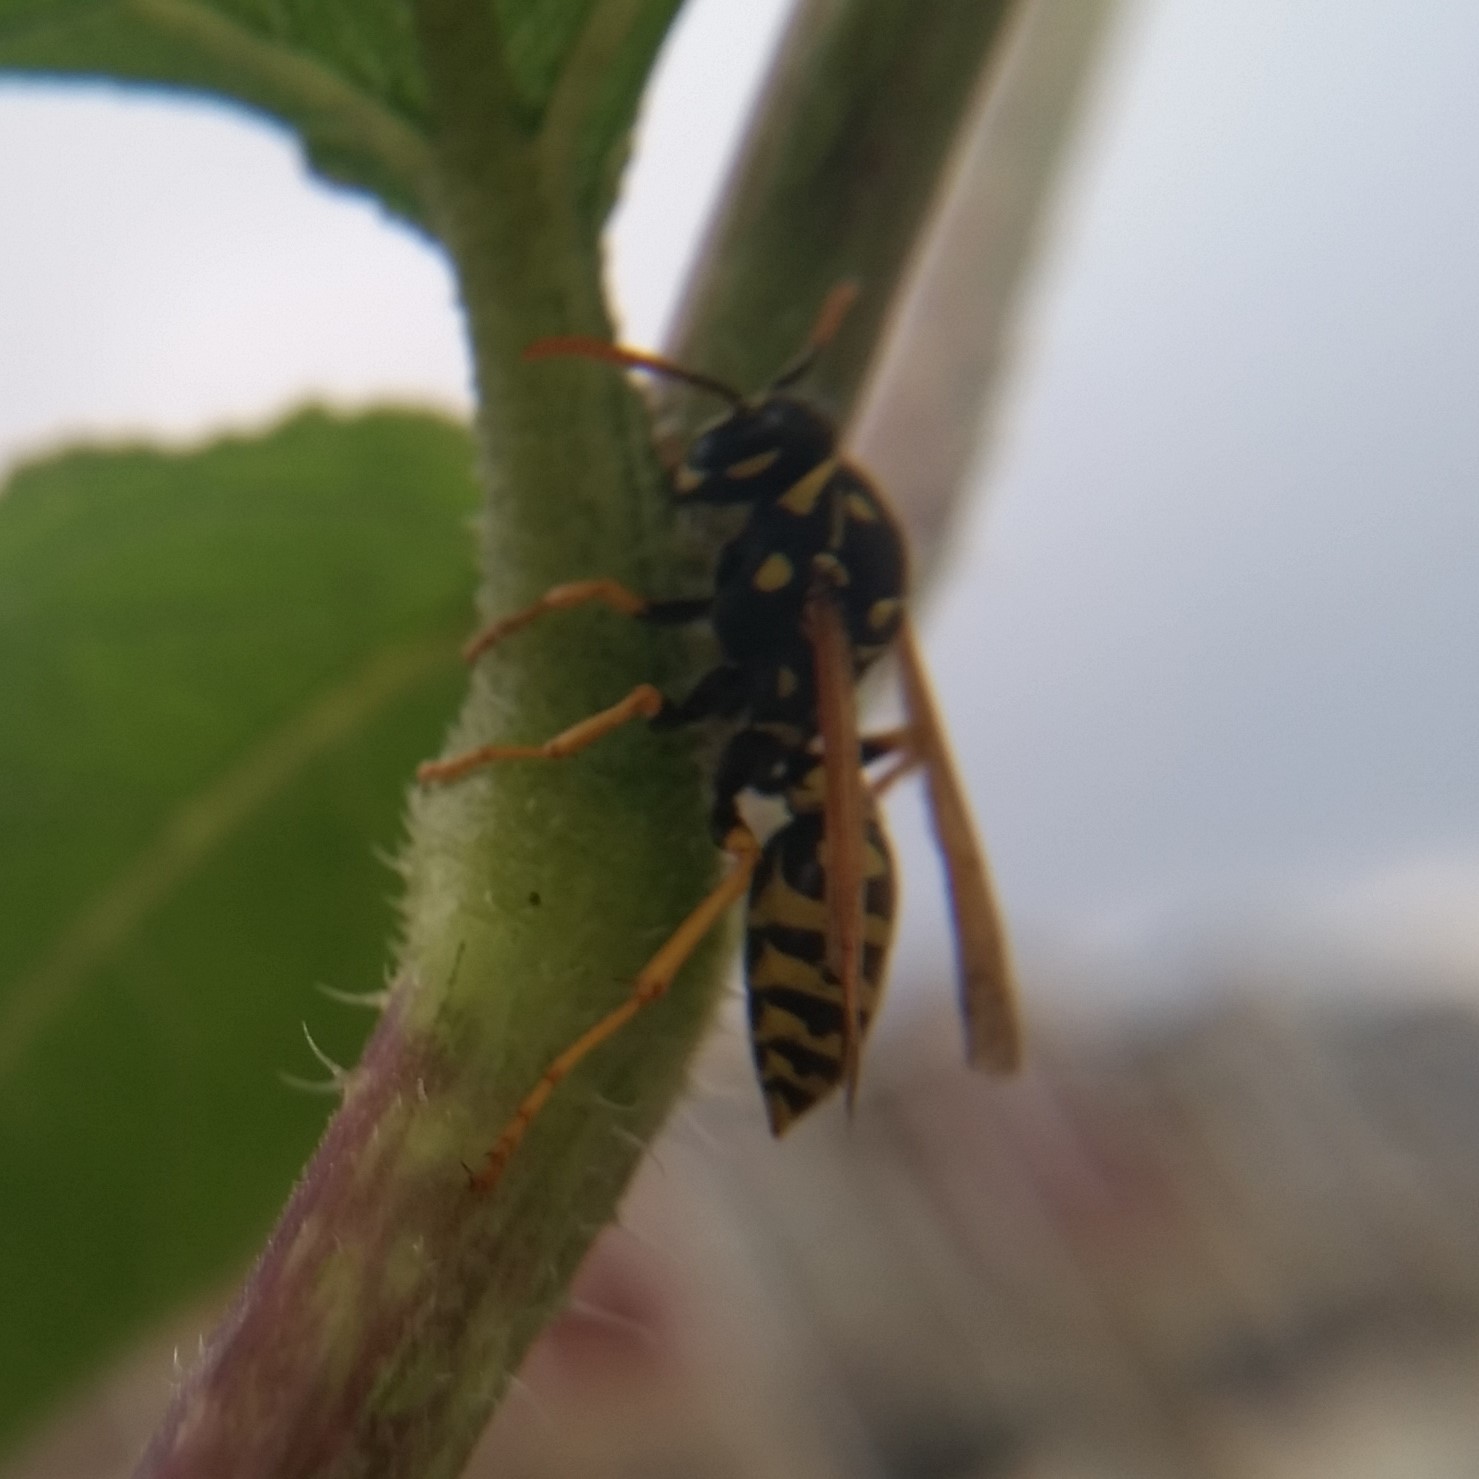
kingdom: Animalia
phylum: Arthropoda
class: Insecta
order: Hymenoptera
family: Eumenidae
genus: Polistes
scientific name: Polistes dominula
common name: Paper wasp
